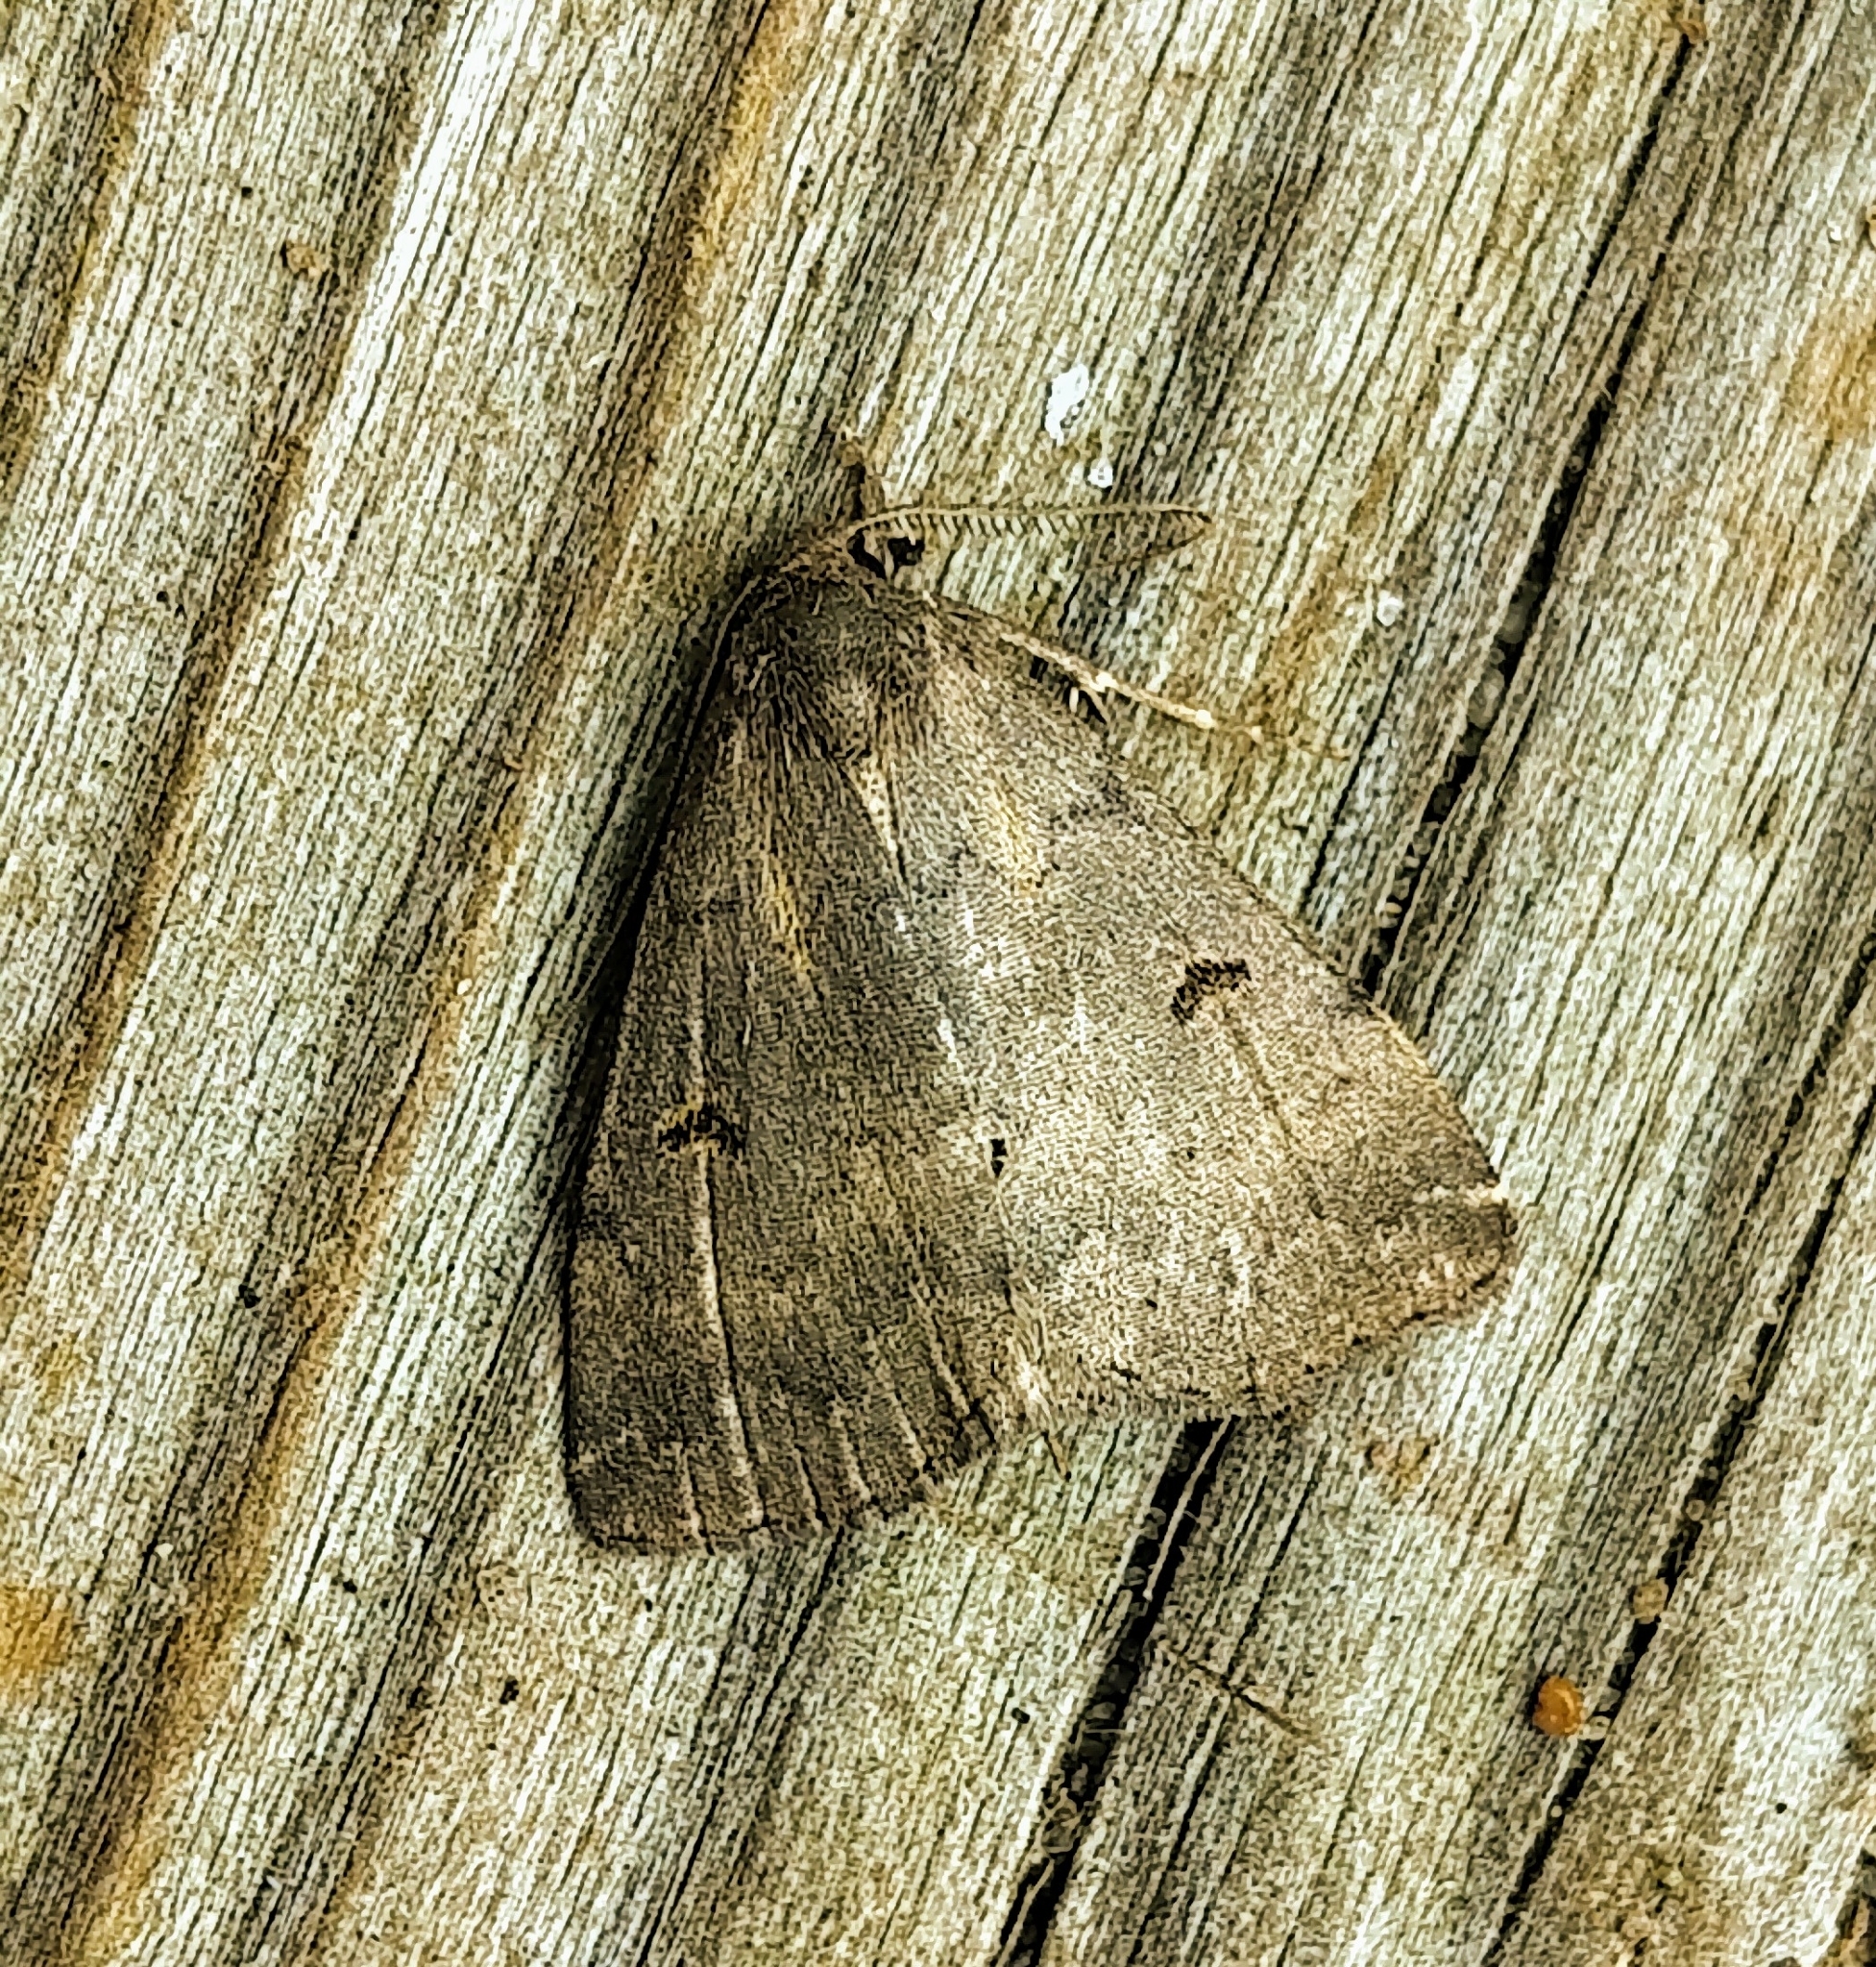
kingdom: Animalia
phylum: Arthropoda
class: Insecta
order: Lepidoptera
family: Erebidae
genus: Bleptina
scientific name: Bleptina caradrinalis
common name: Bent-winged owlet
